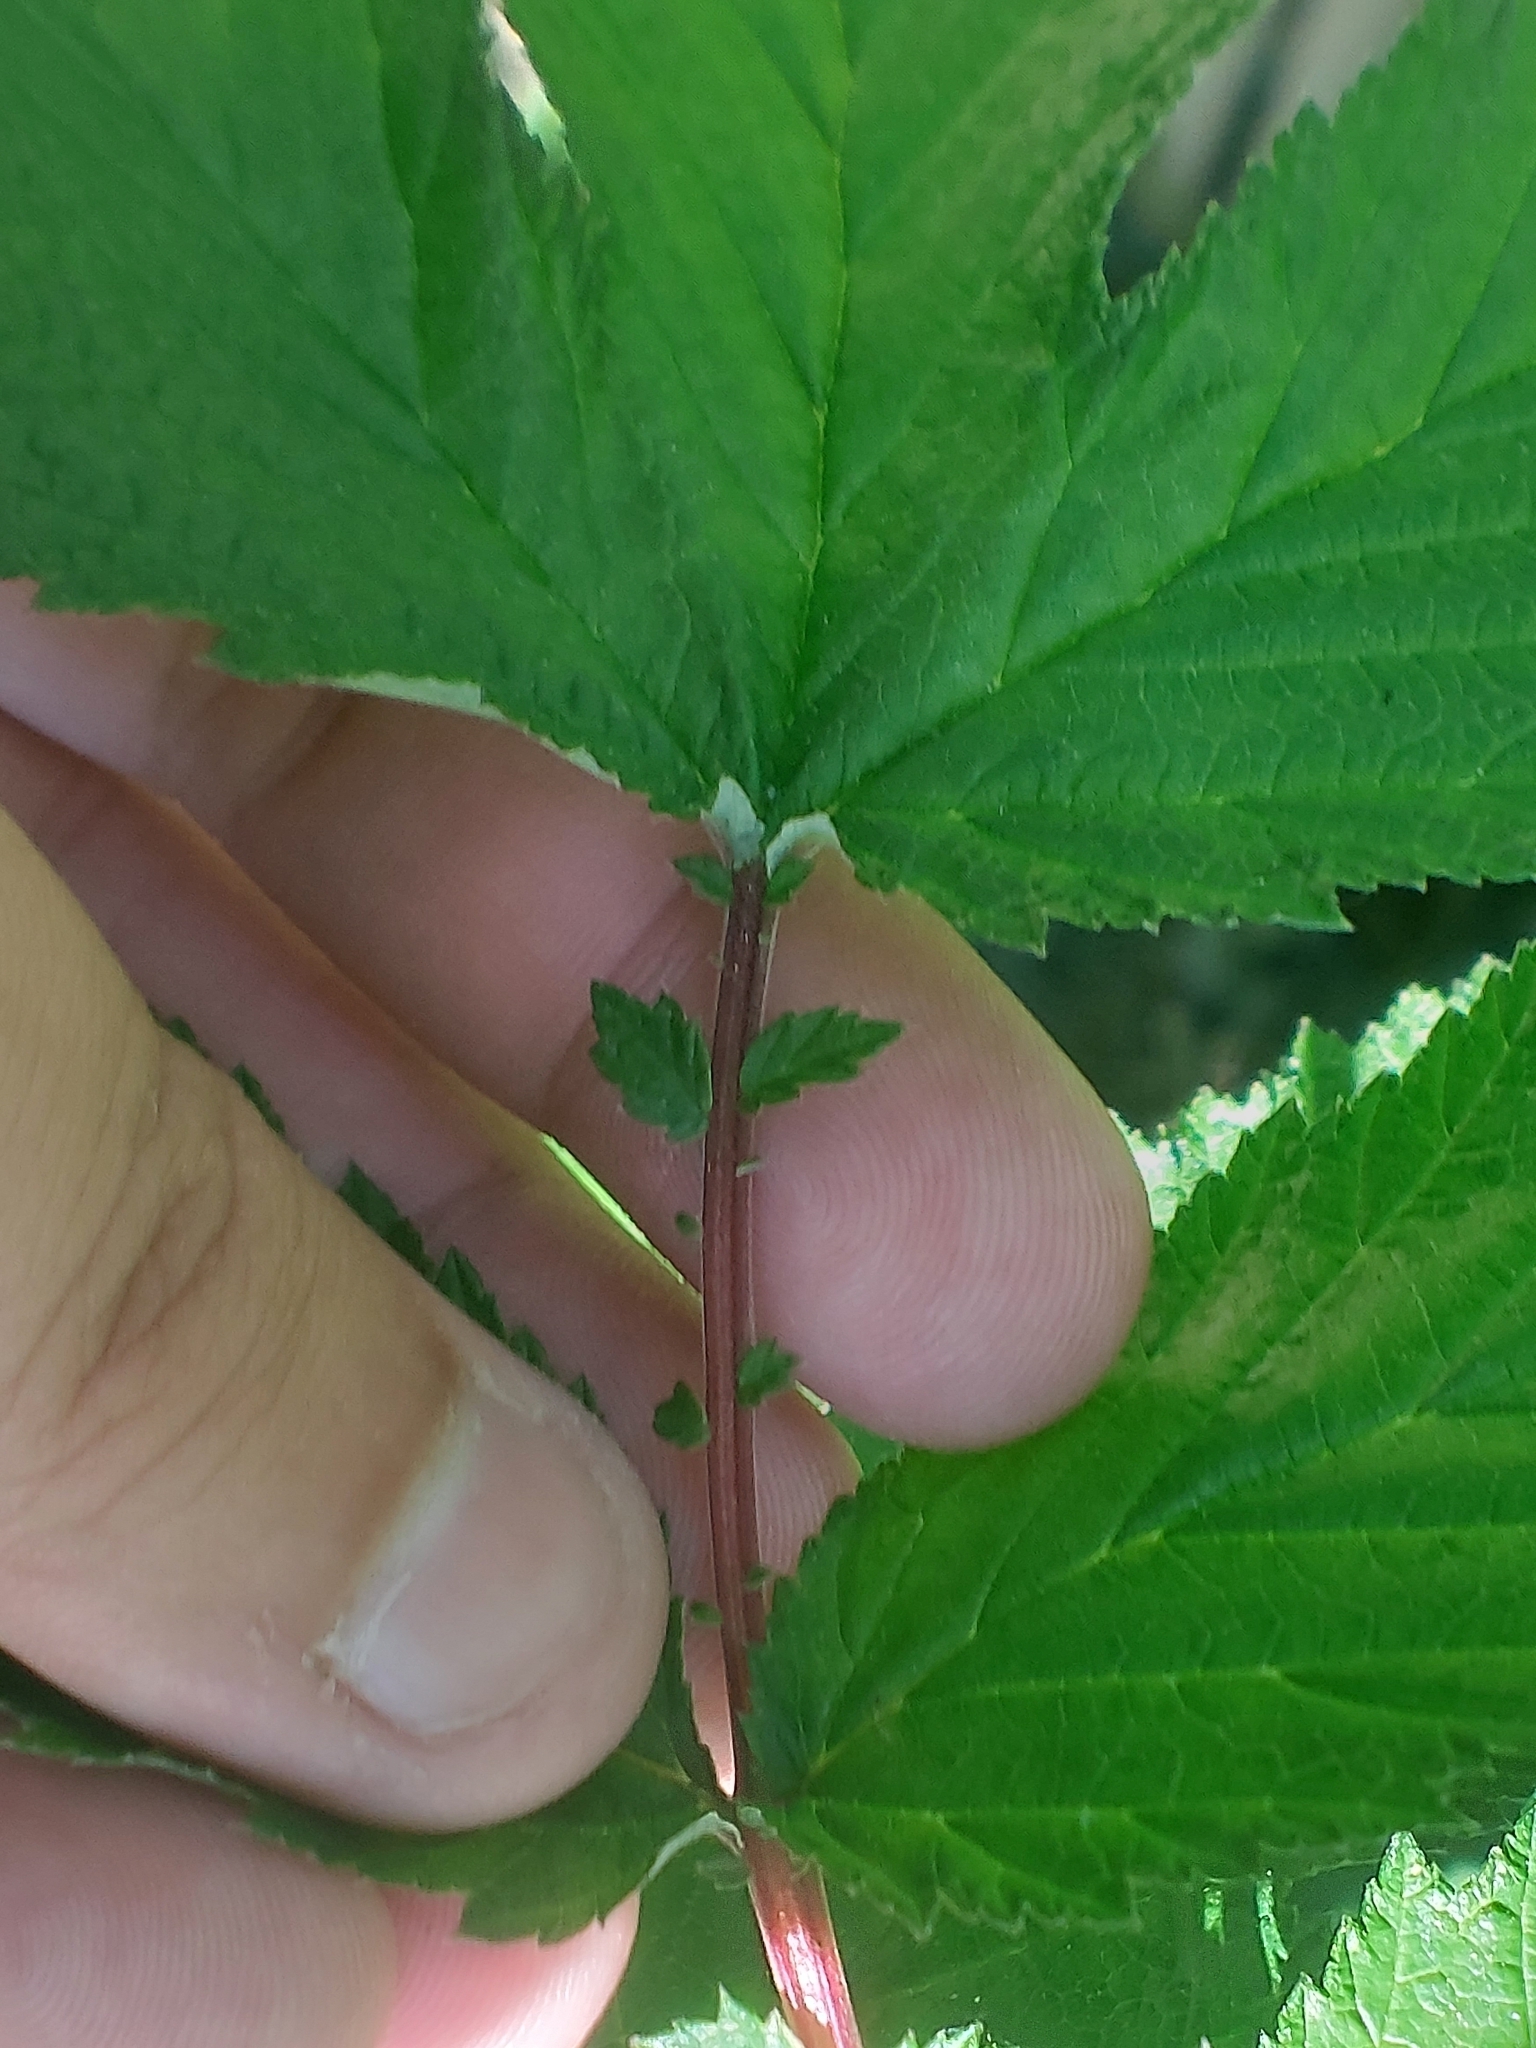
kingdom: Plantae
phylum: Tracheophyta
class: Magnoliopsida
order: Rosales
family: Rosaceae
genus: Filipendula
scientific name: Filipendula ulmaria
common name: Meadowsweet
